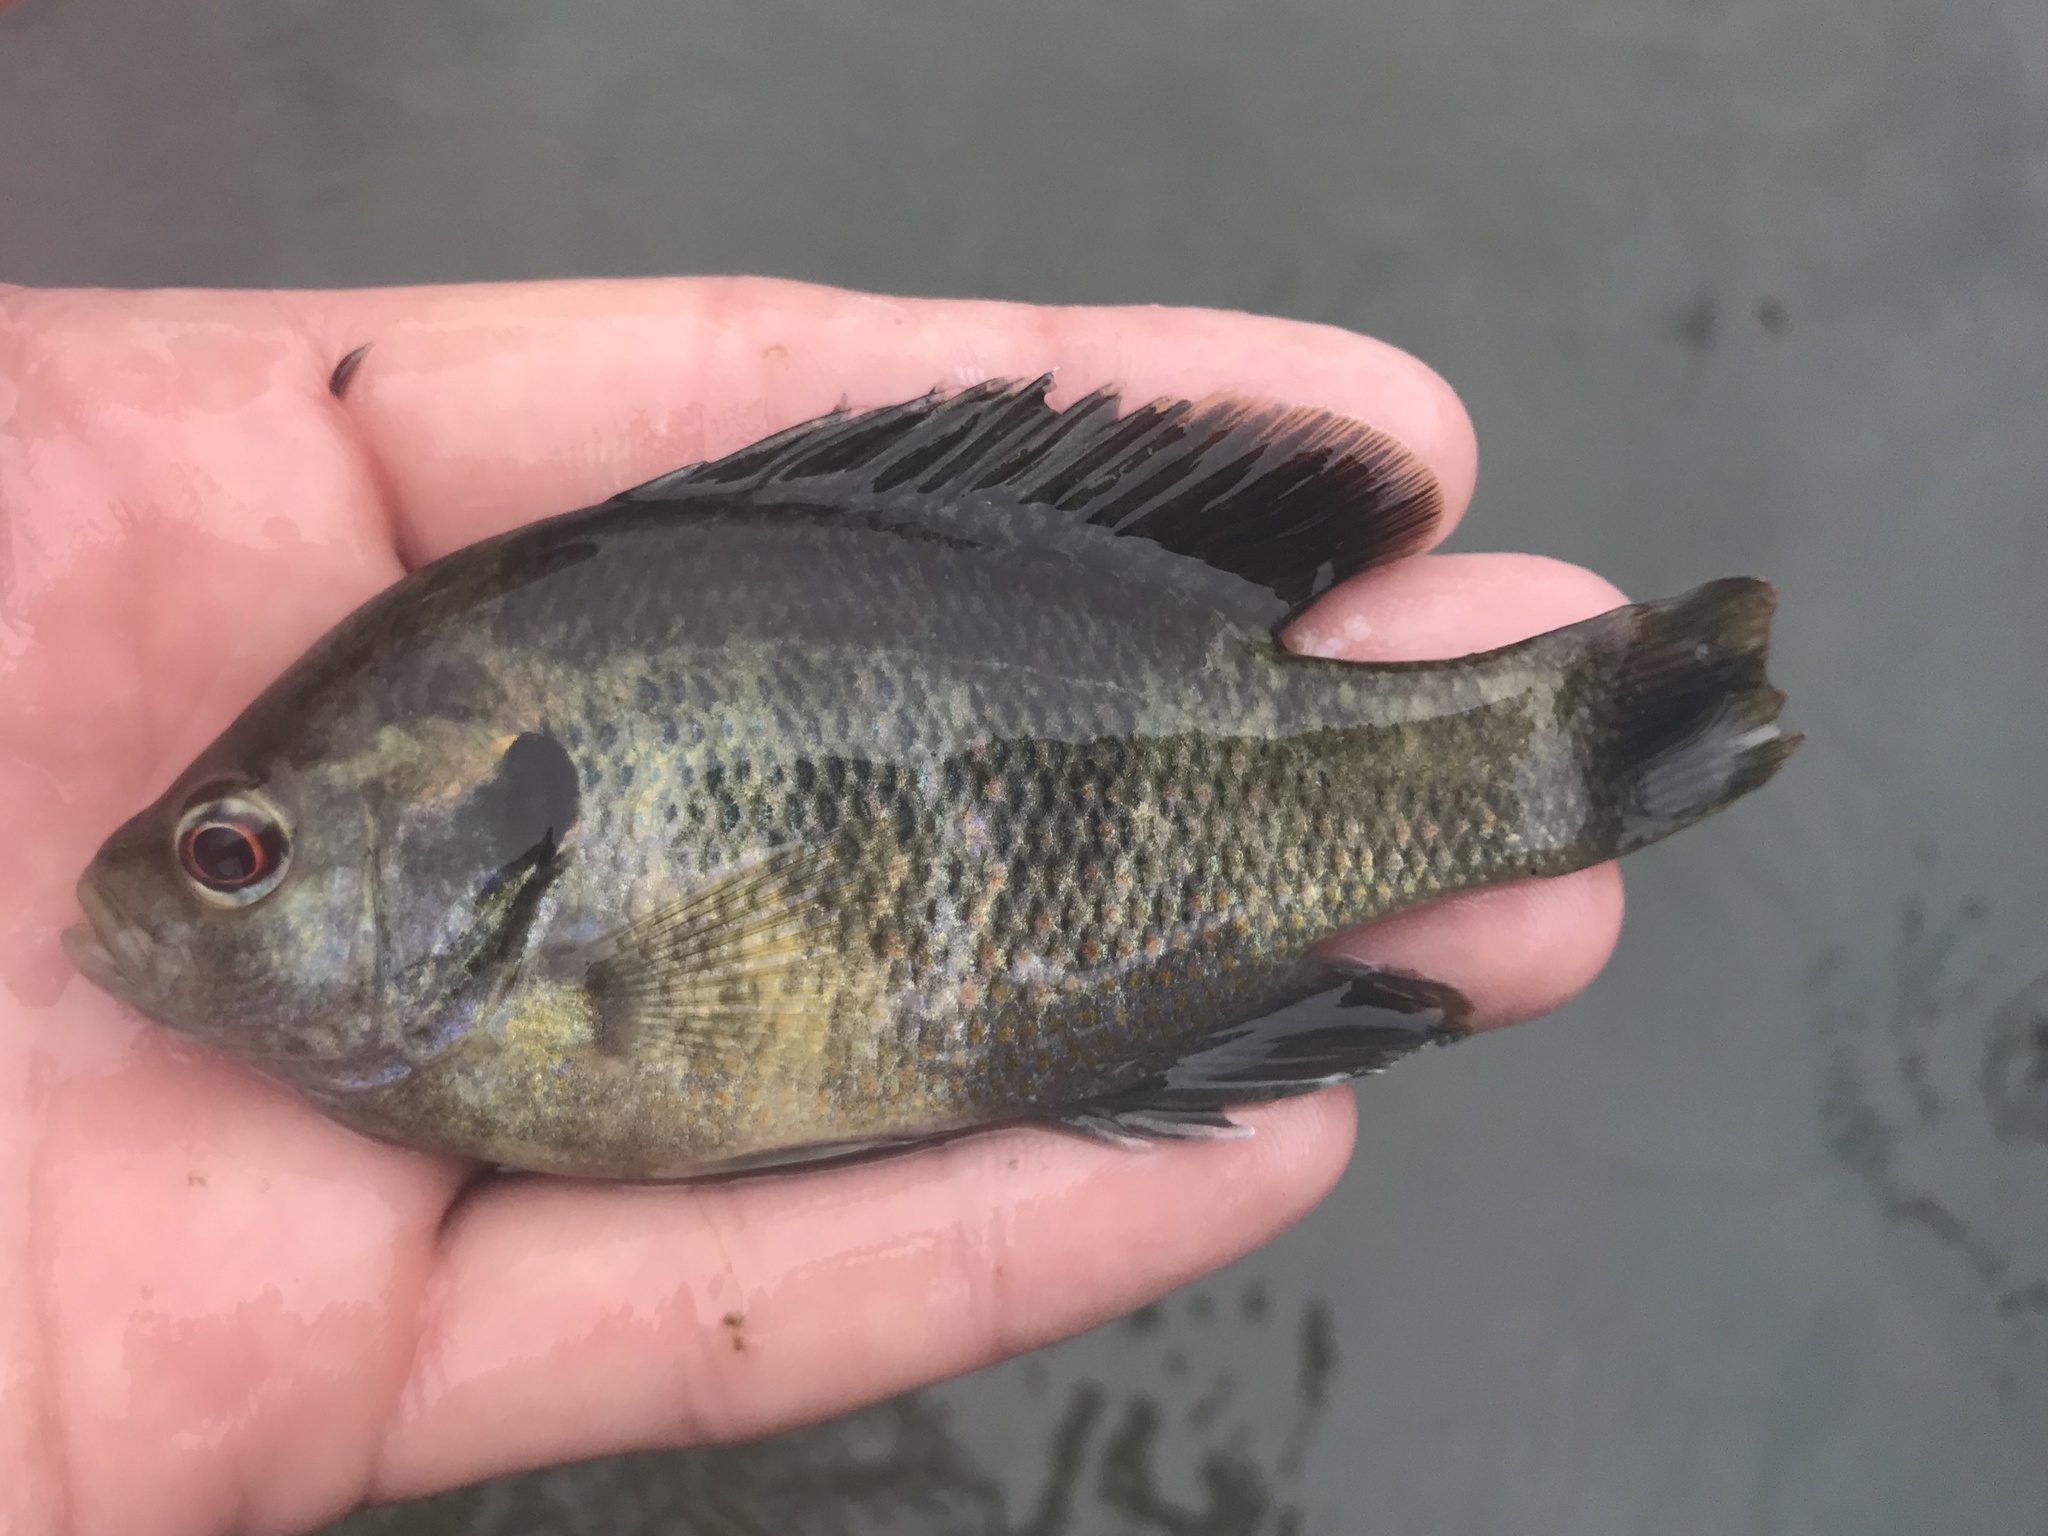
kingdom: Animalia
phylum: Chordata
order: Perciformes
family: Centrarchidae
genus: Lepomis
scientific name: Lepomis miniatus
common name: Redspotted sunfish
